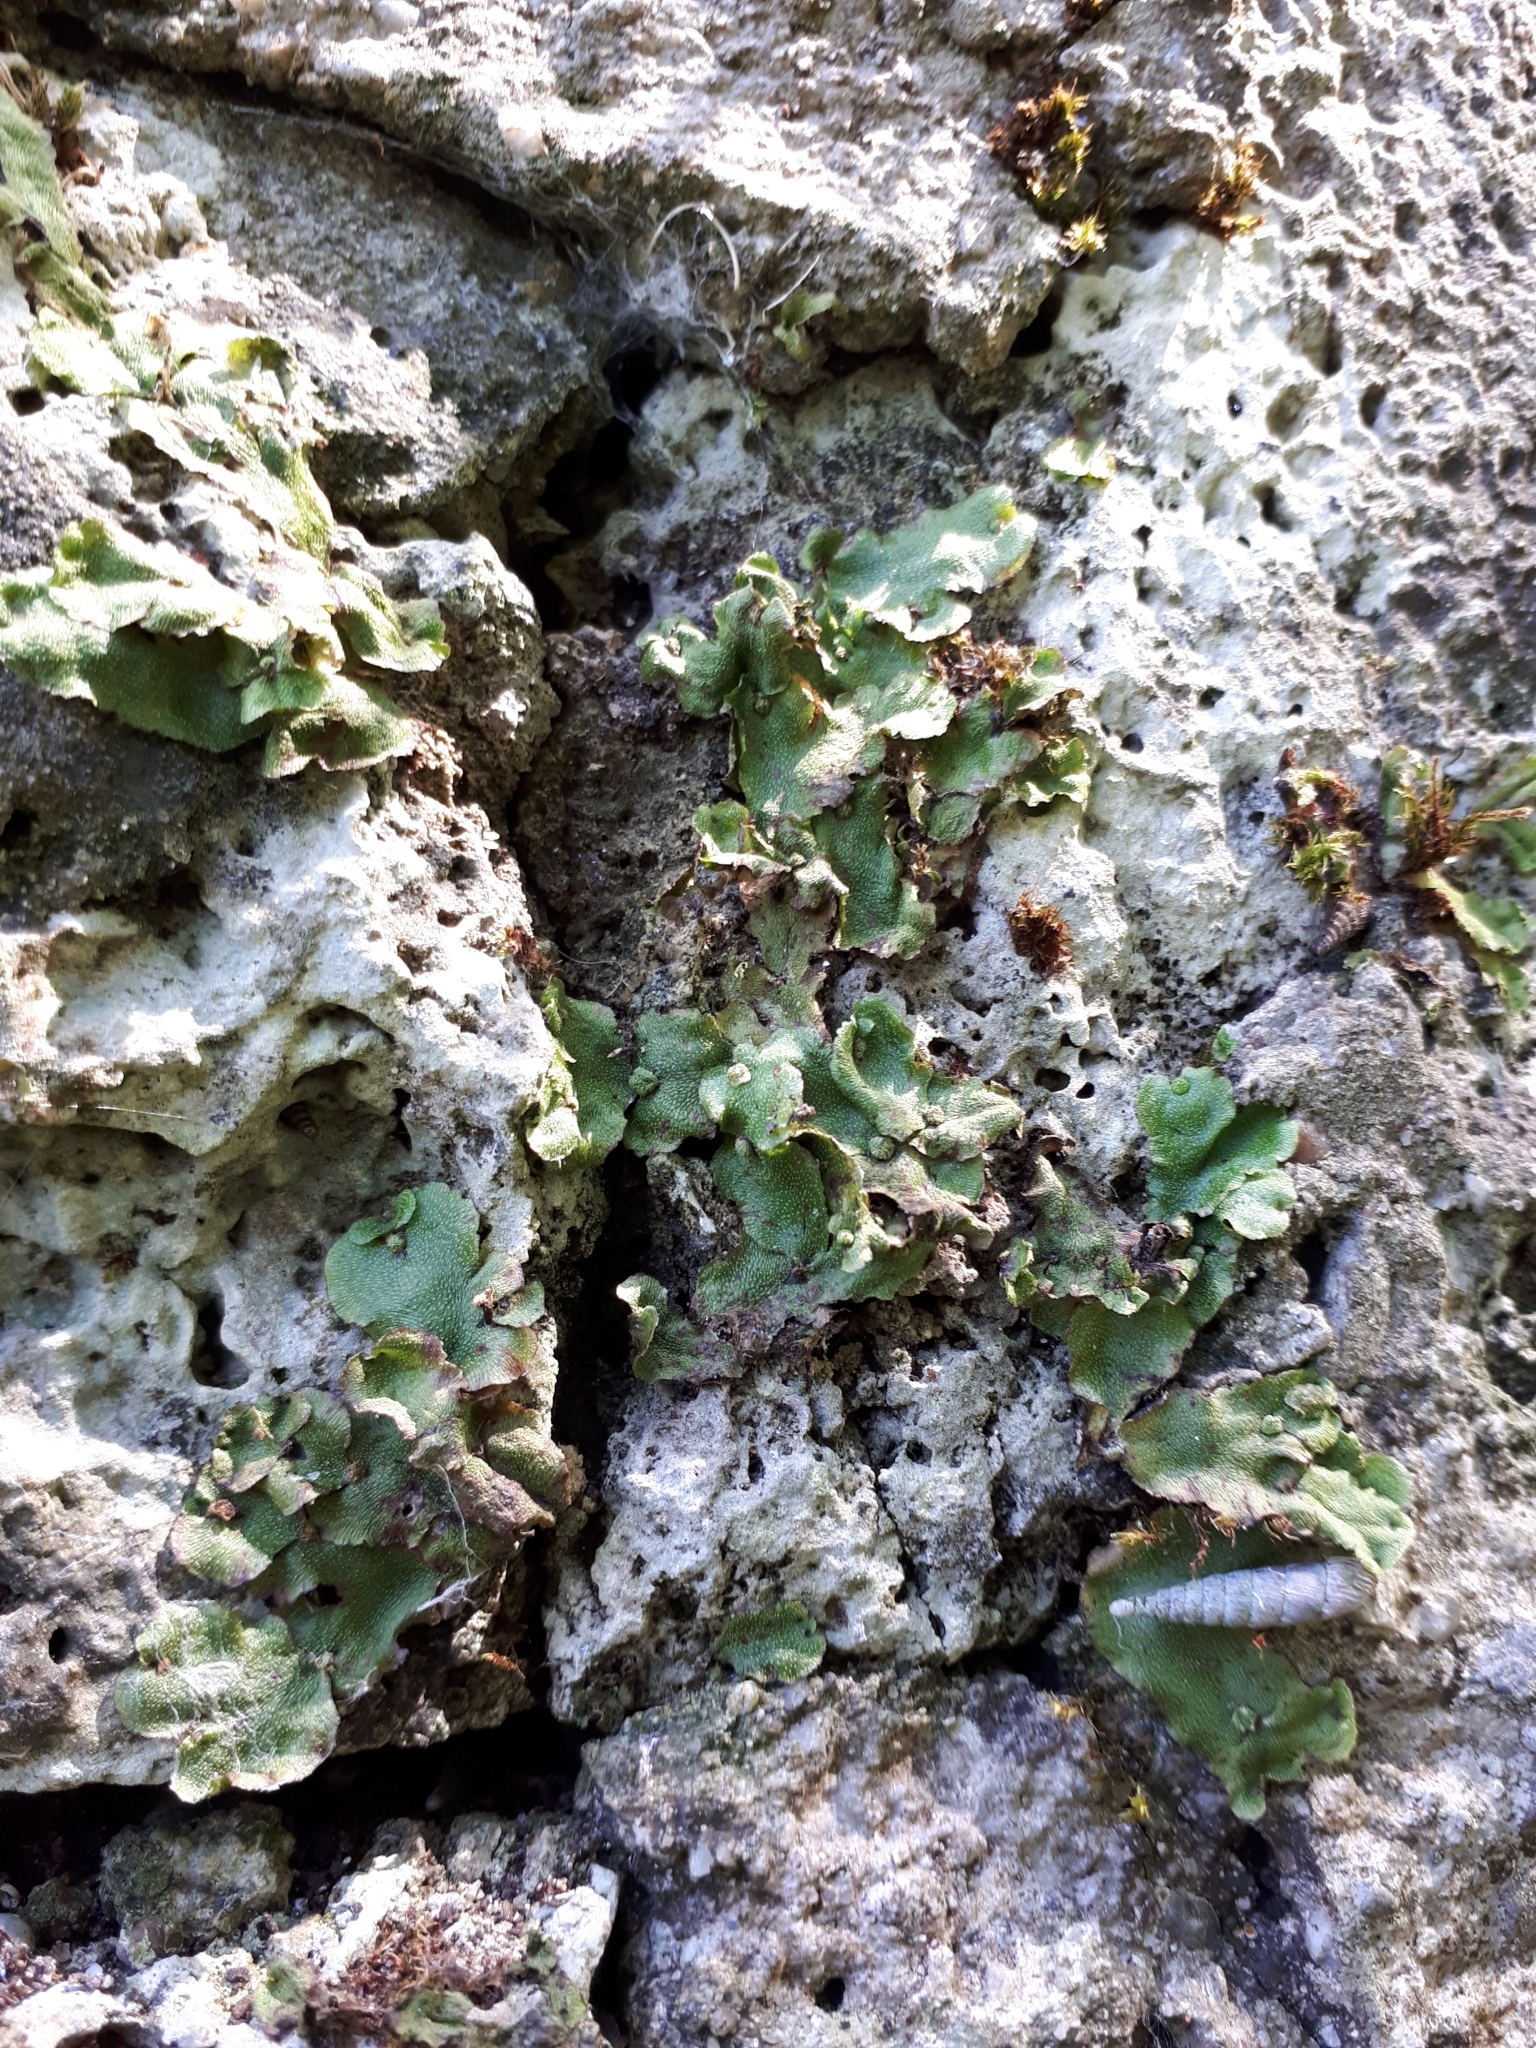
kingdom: Plantae
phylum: Marchantiophyta
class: Marchantiopsida
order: Marchantiales
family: Marchantiaceae
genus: Marchantia
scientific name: Marchantia quadrata
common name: Narrow mushroom-headed liverwort
